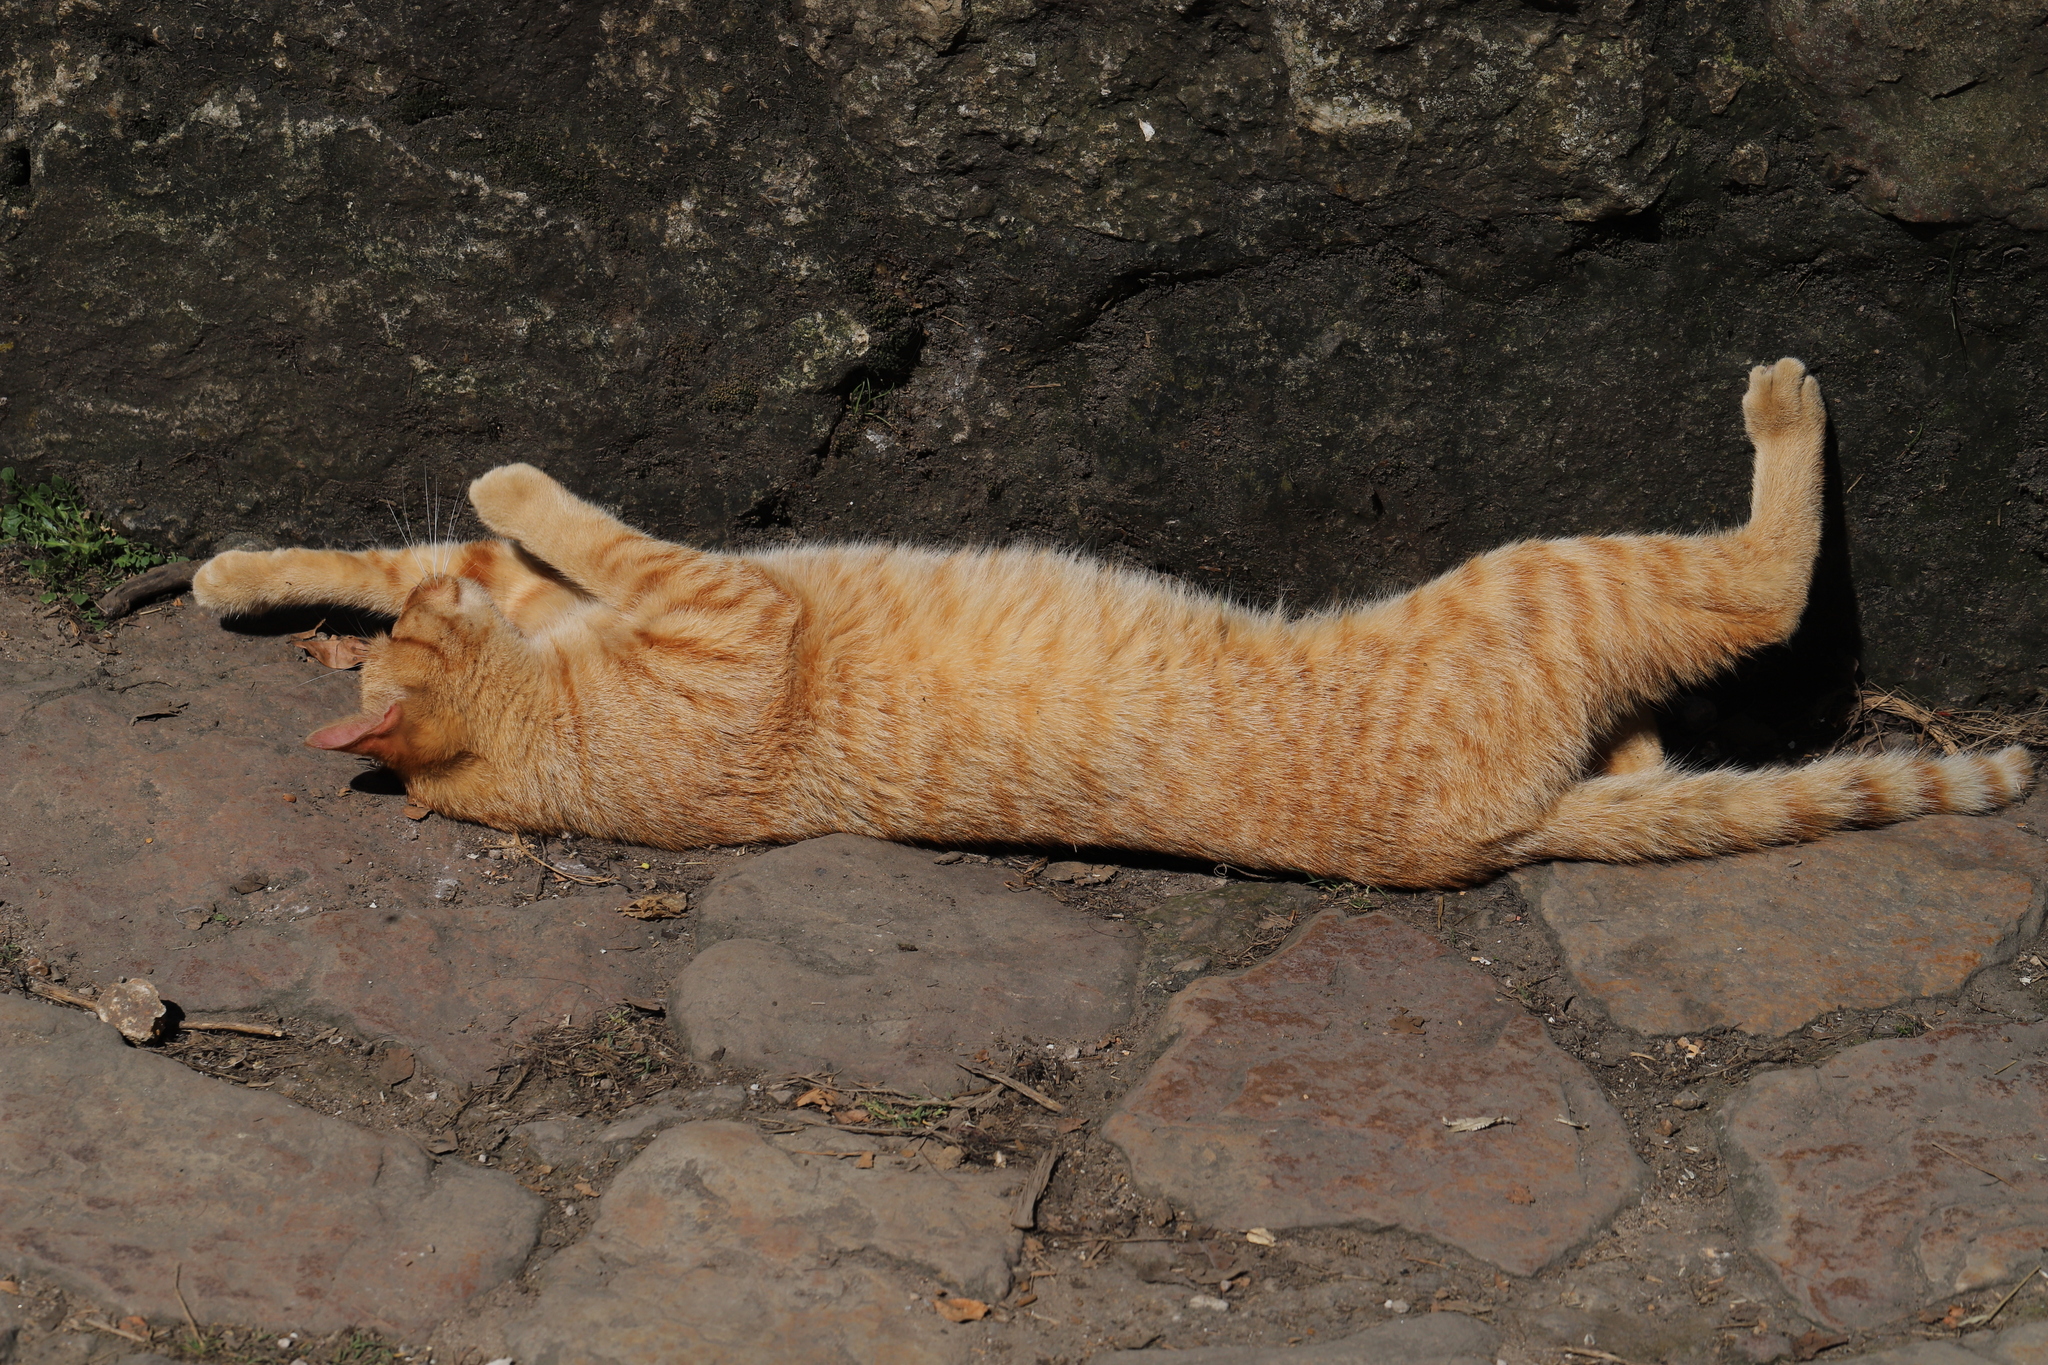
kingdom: Animalia
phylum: Chordata
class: Mammalia
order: Carnivora
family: Felidae
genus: Felis
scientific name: Felis catus
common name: Domestic cat
